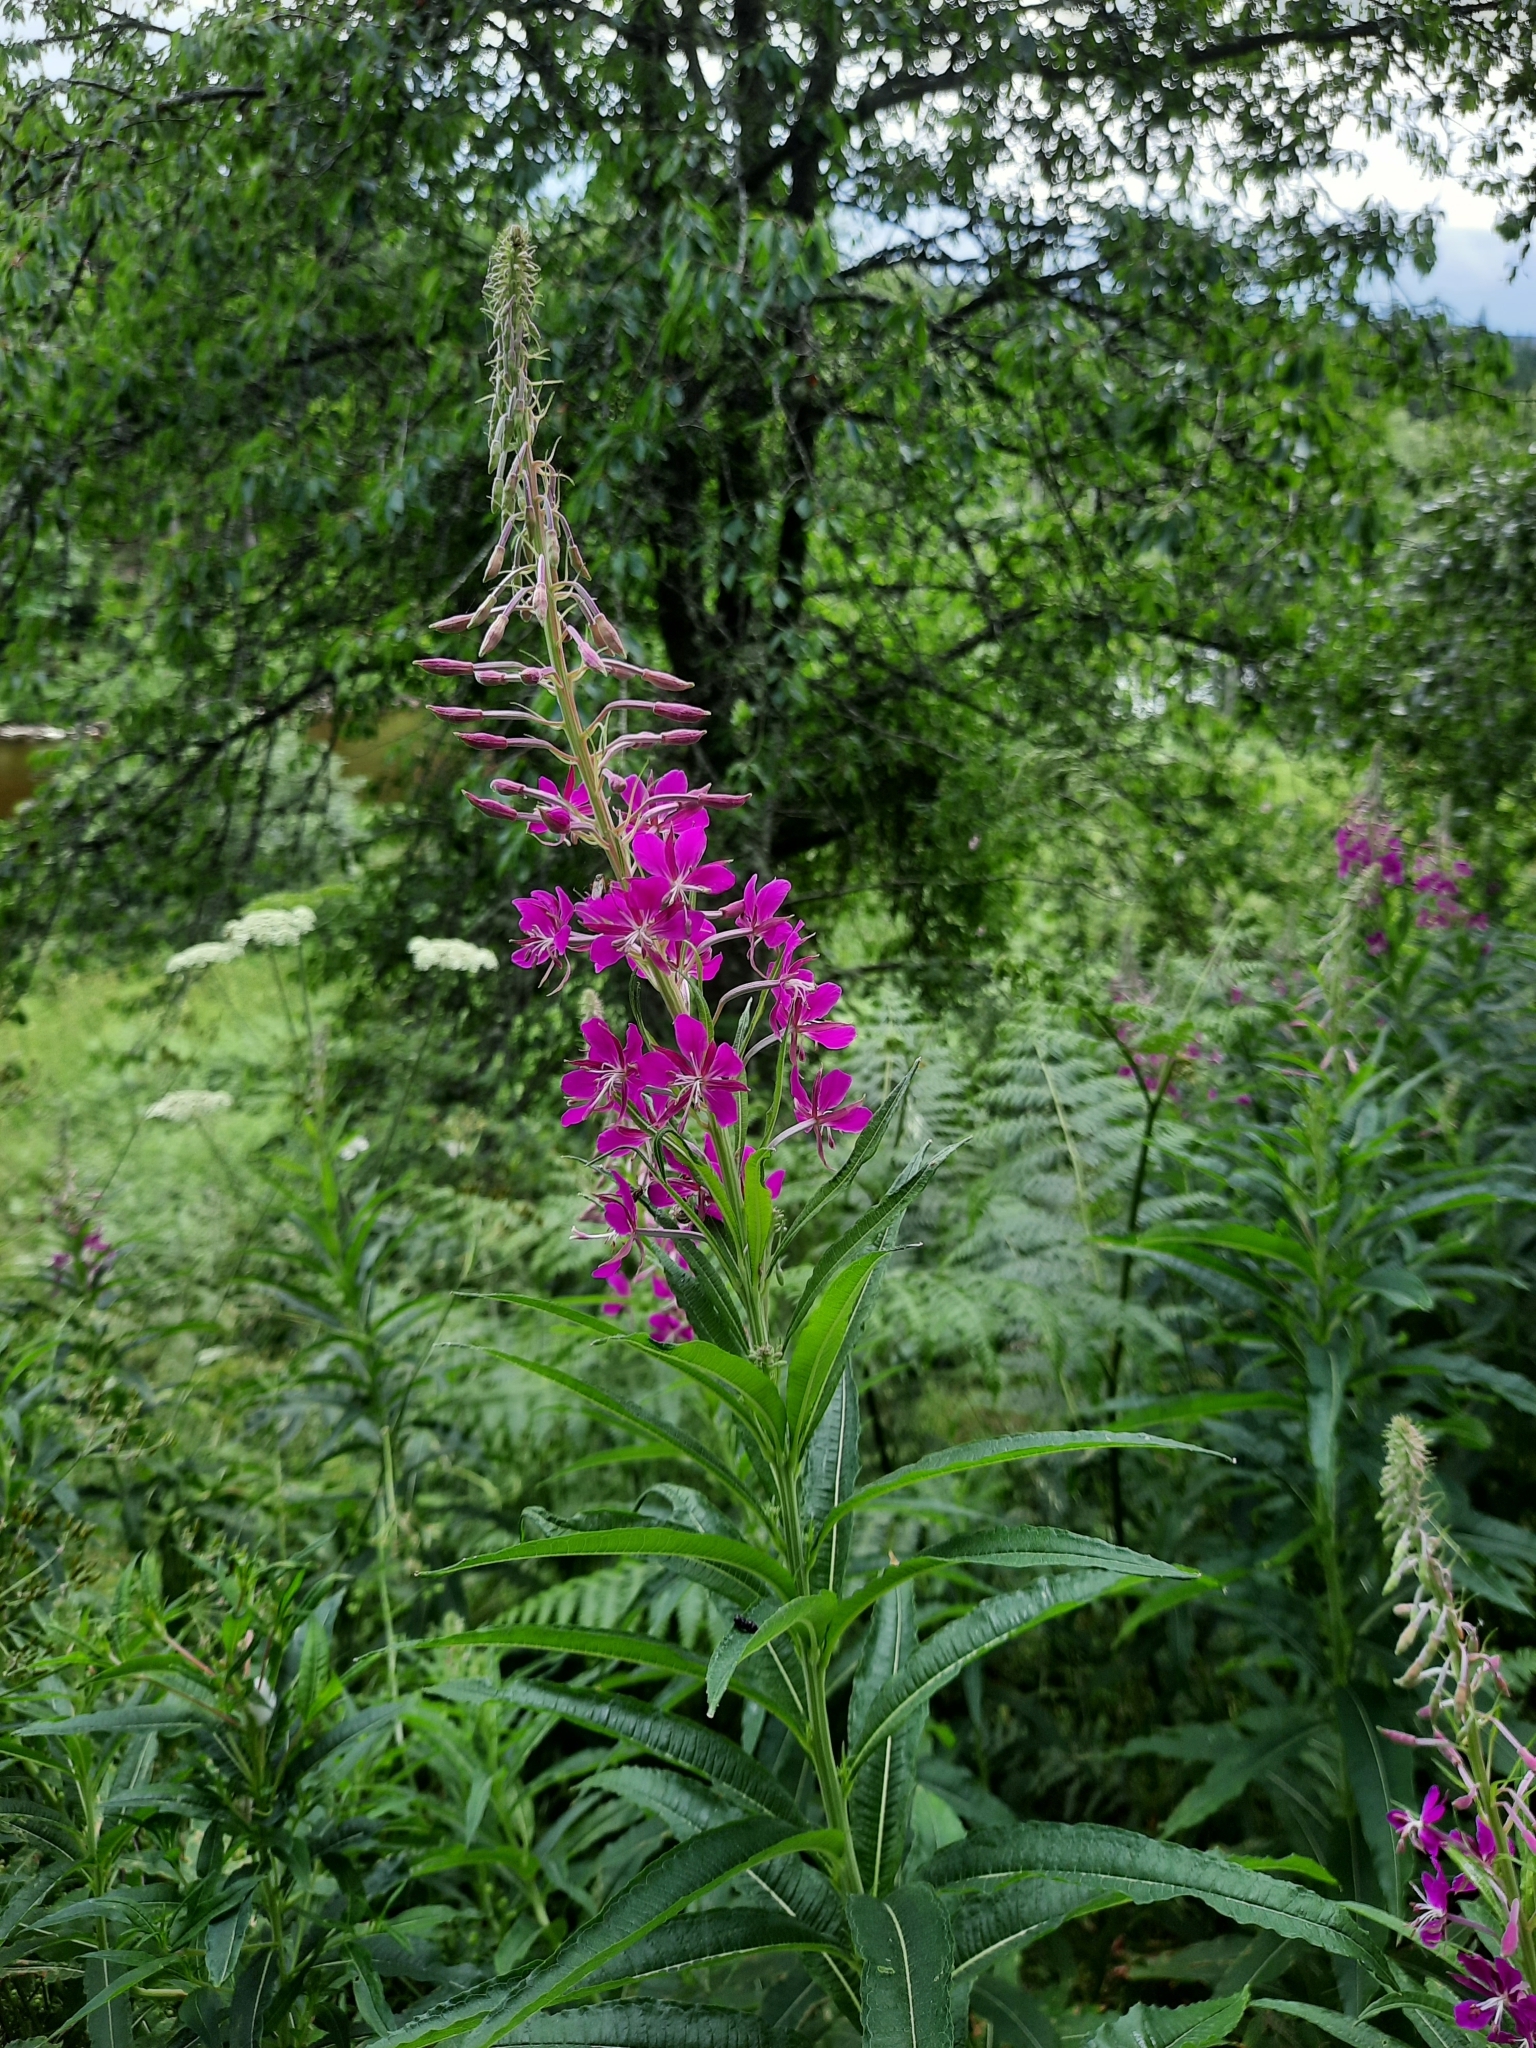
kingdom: Plantae
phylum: Tracheophyta
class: Magnoliopsida
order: Myrtales
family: Onagraceae
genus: Chamaenerion
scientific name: Chamaenerion angustifolium
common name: Fireweed
